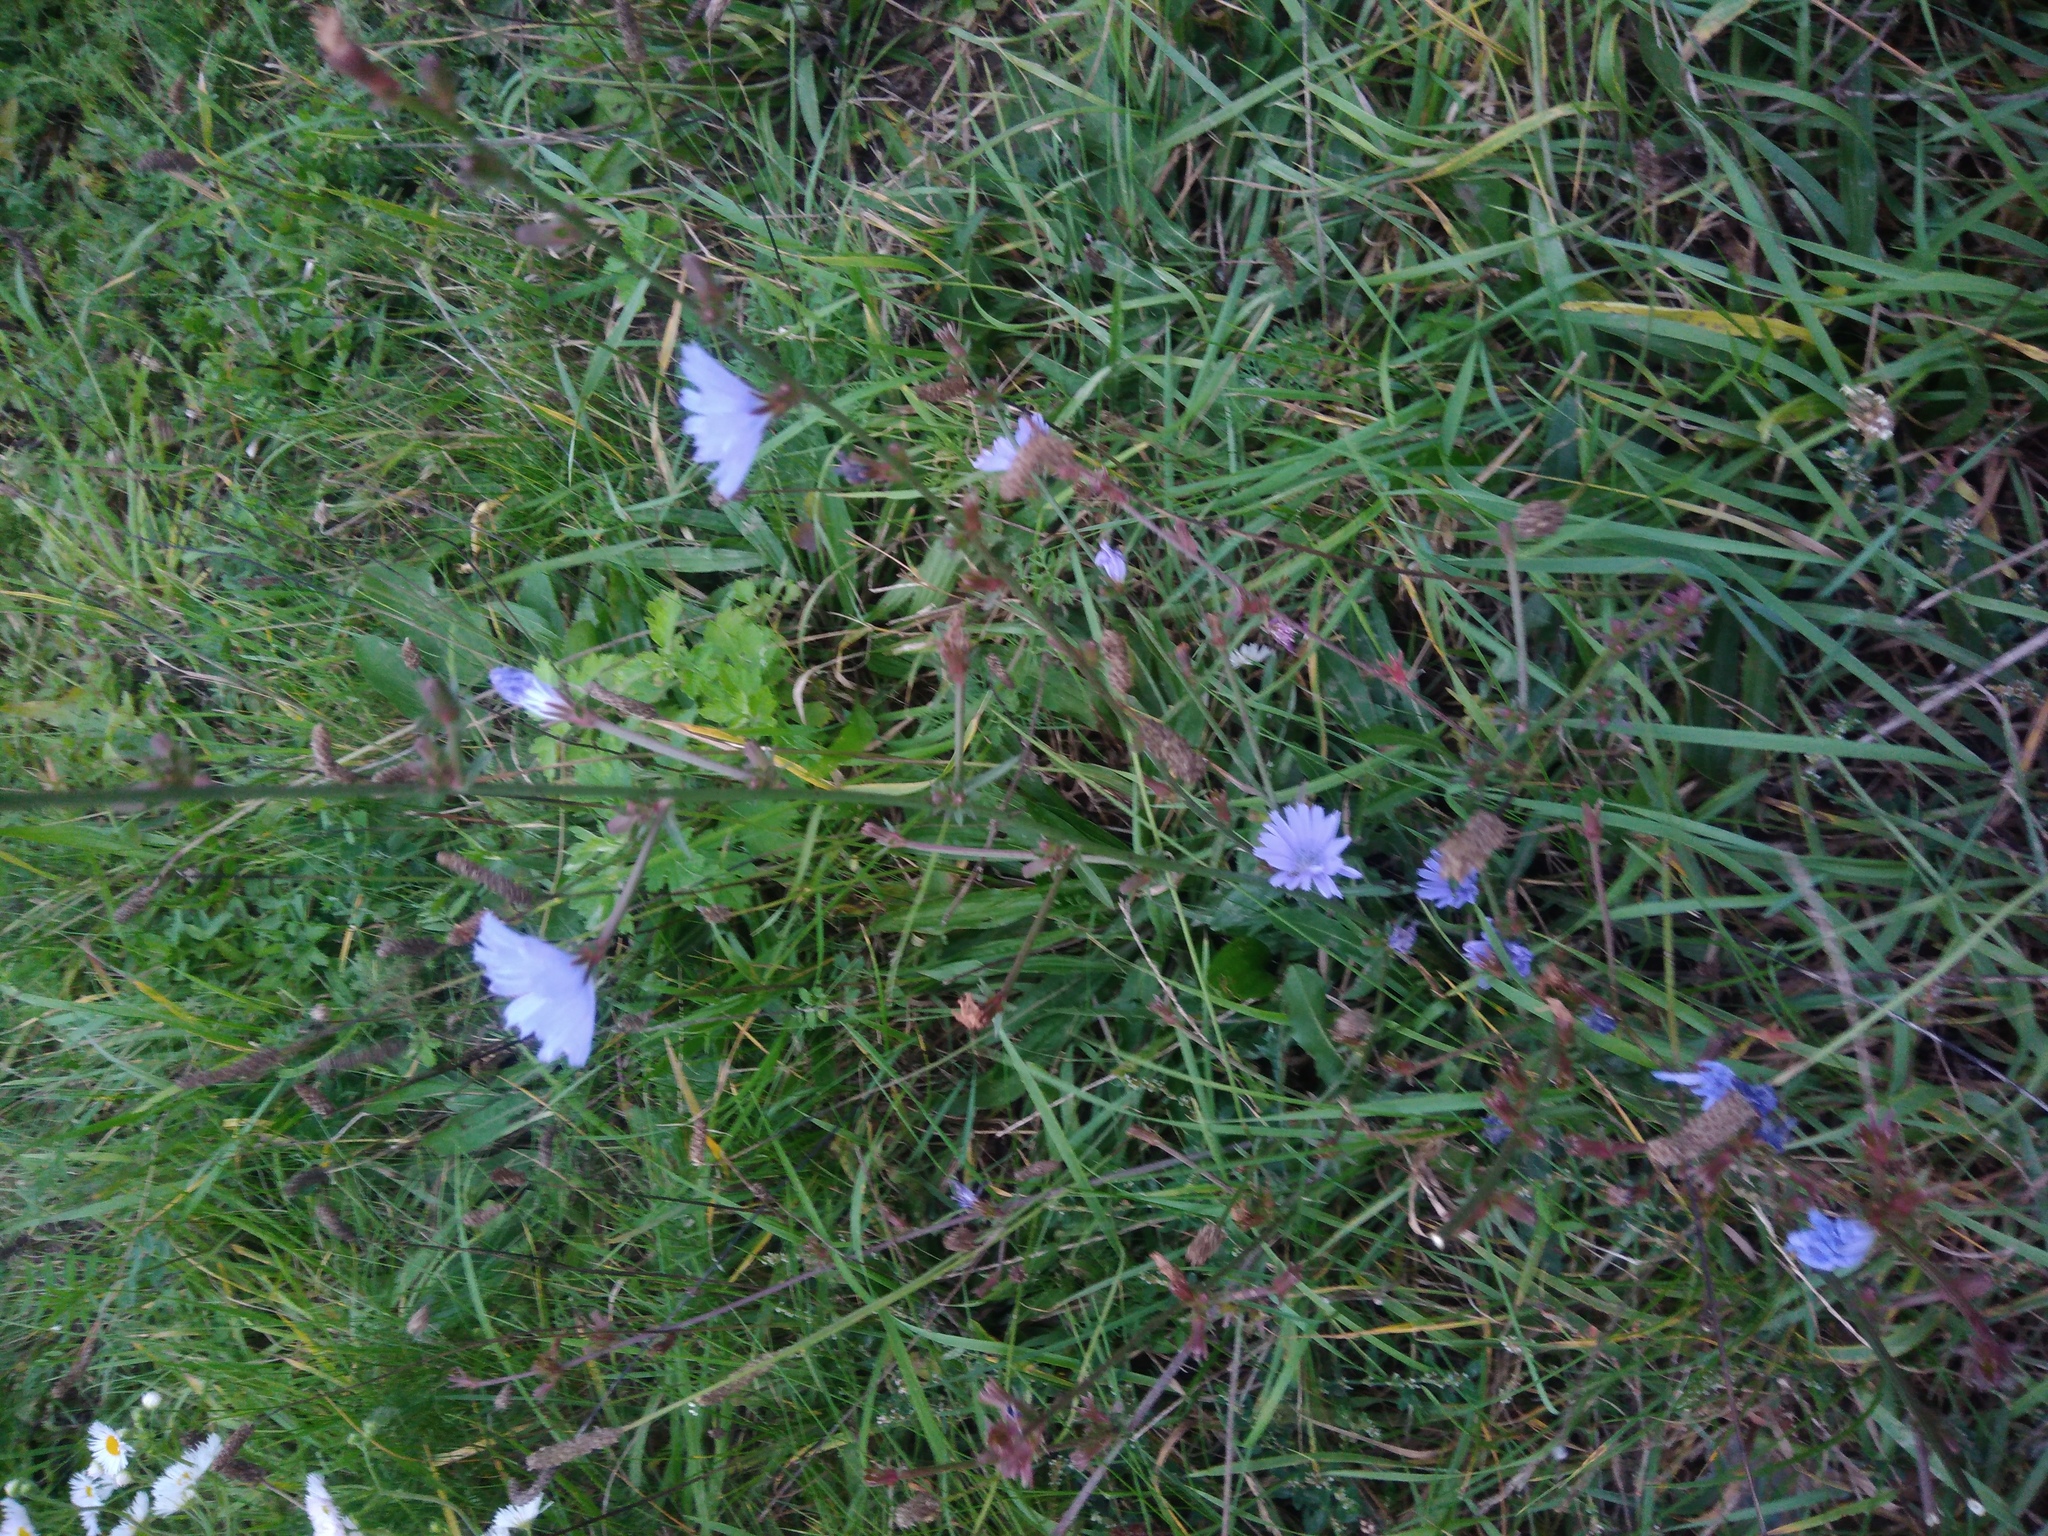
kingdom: Plantae
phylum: Tracheophyta
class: Magnoliopsida
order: Asterales
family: Asteraceae
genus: Cichorium
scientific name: Cichorium intybus
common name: Chicory
